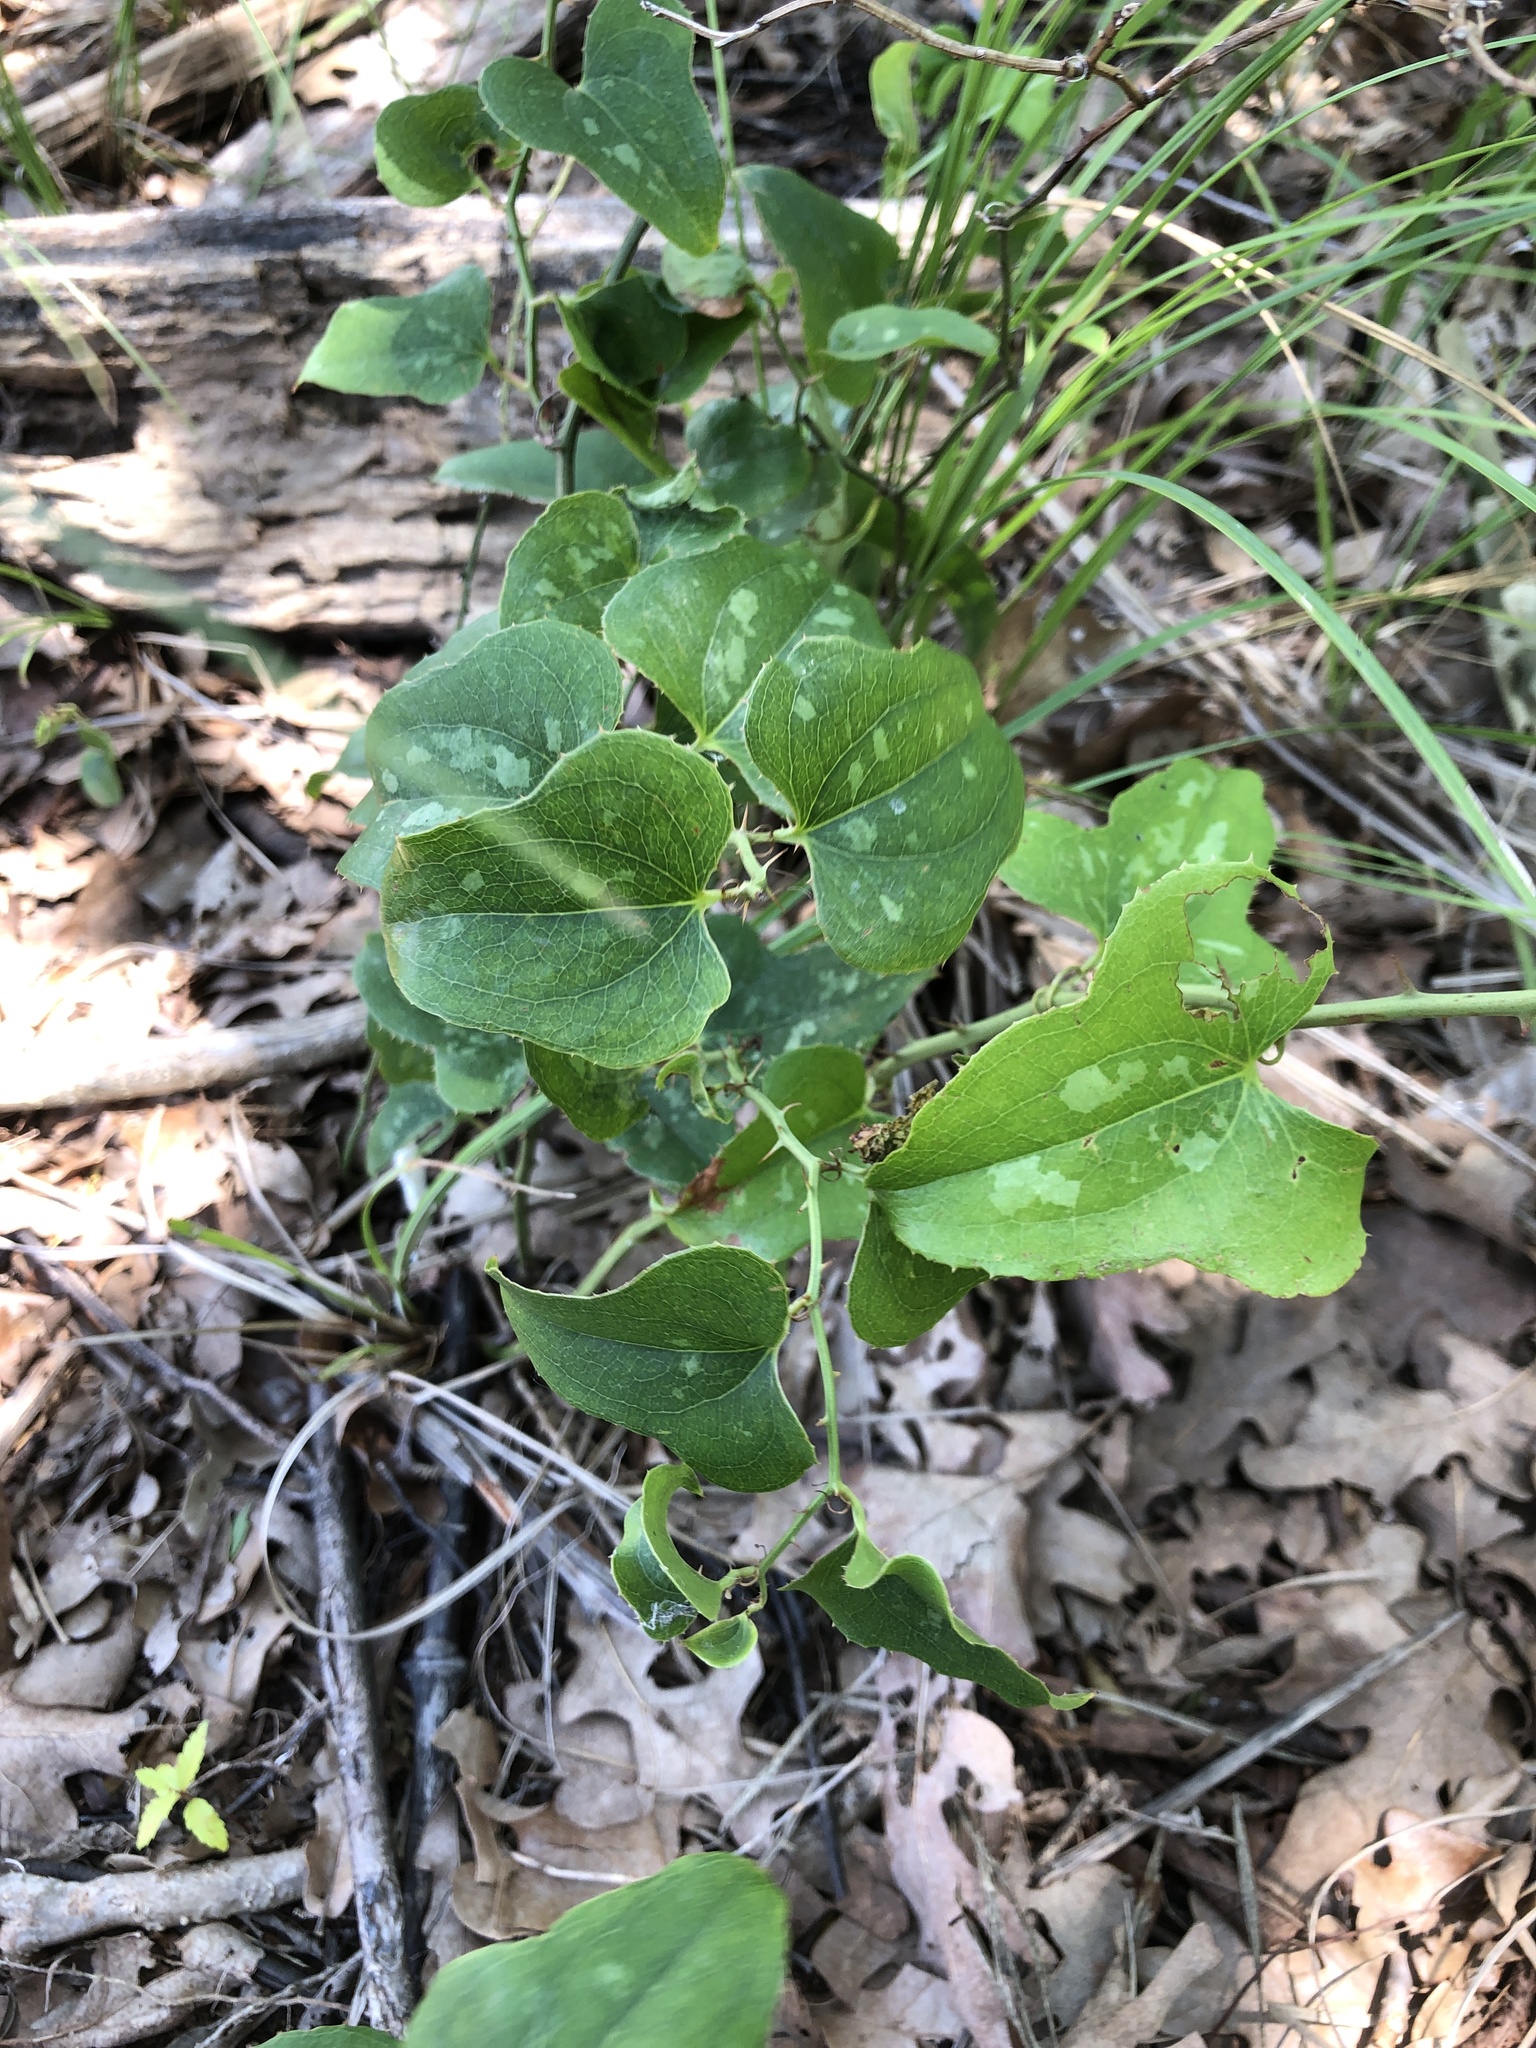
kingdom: Plantae
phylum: Tracheophyta
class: Liliopsida
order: Liliales
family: Smilacaceae
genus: Smilax
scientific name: Smilax bona-nox
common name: Catbrier
